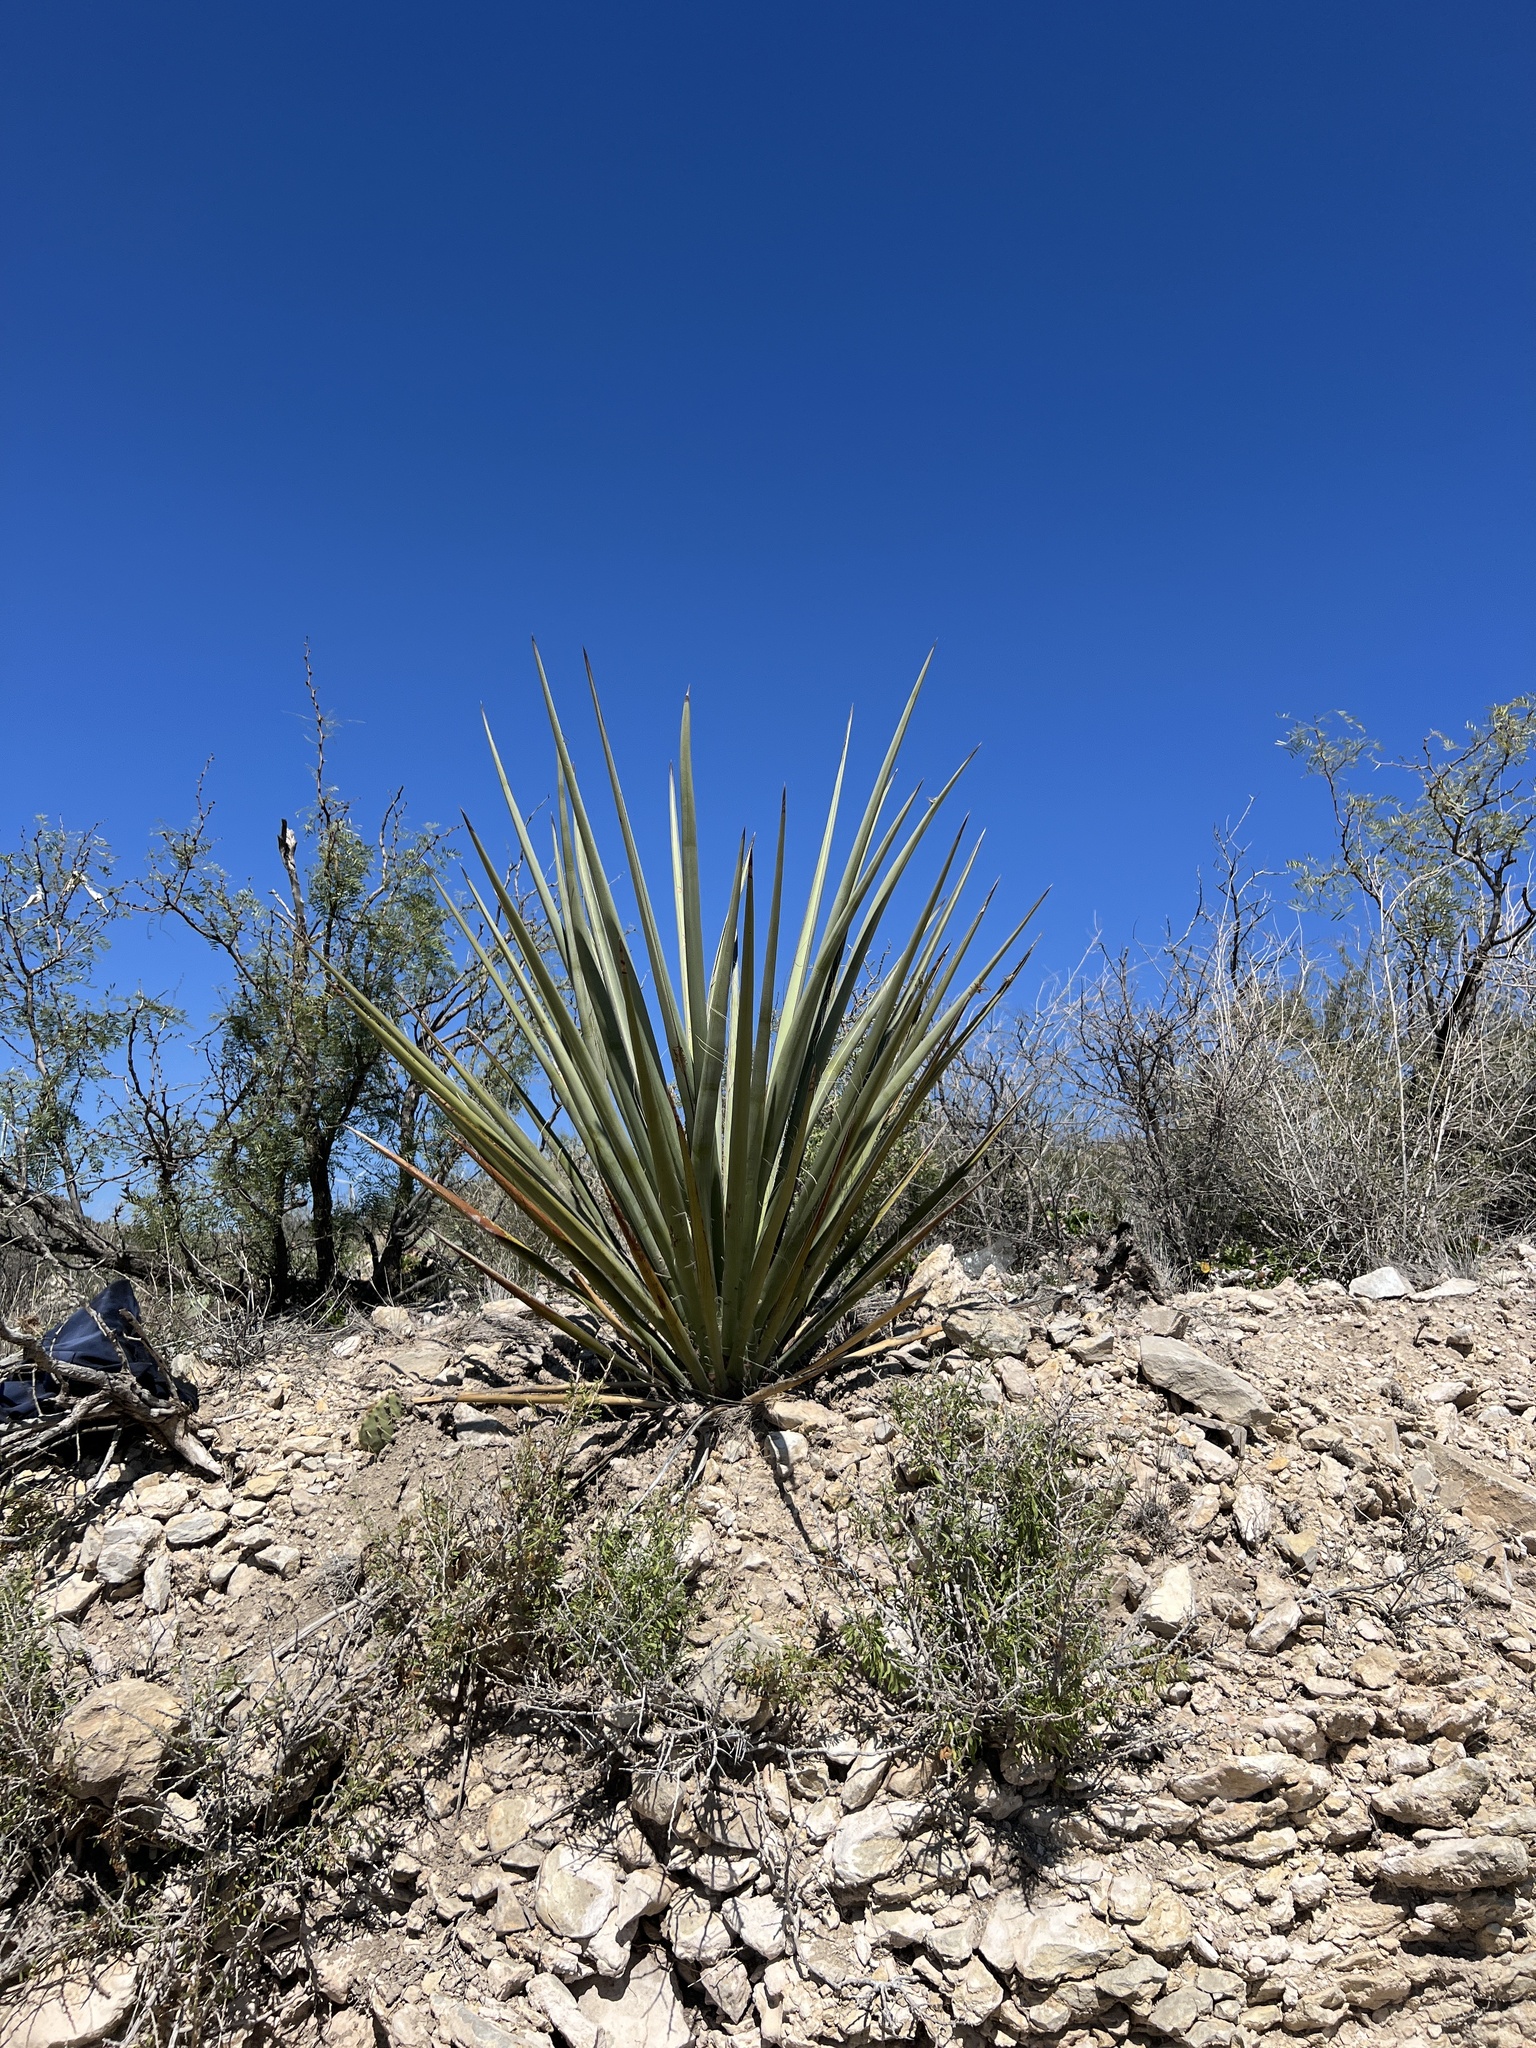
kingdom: Plantae
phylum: Tracheophyta
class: Liliopsida
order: Asparagales
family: Asparagaceae
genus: Yucca
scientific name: Yucca treculiana
